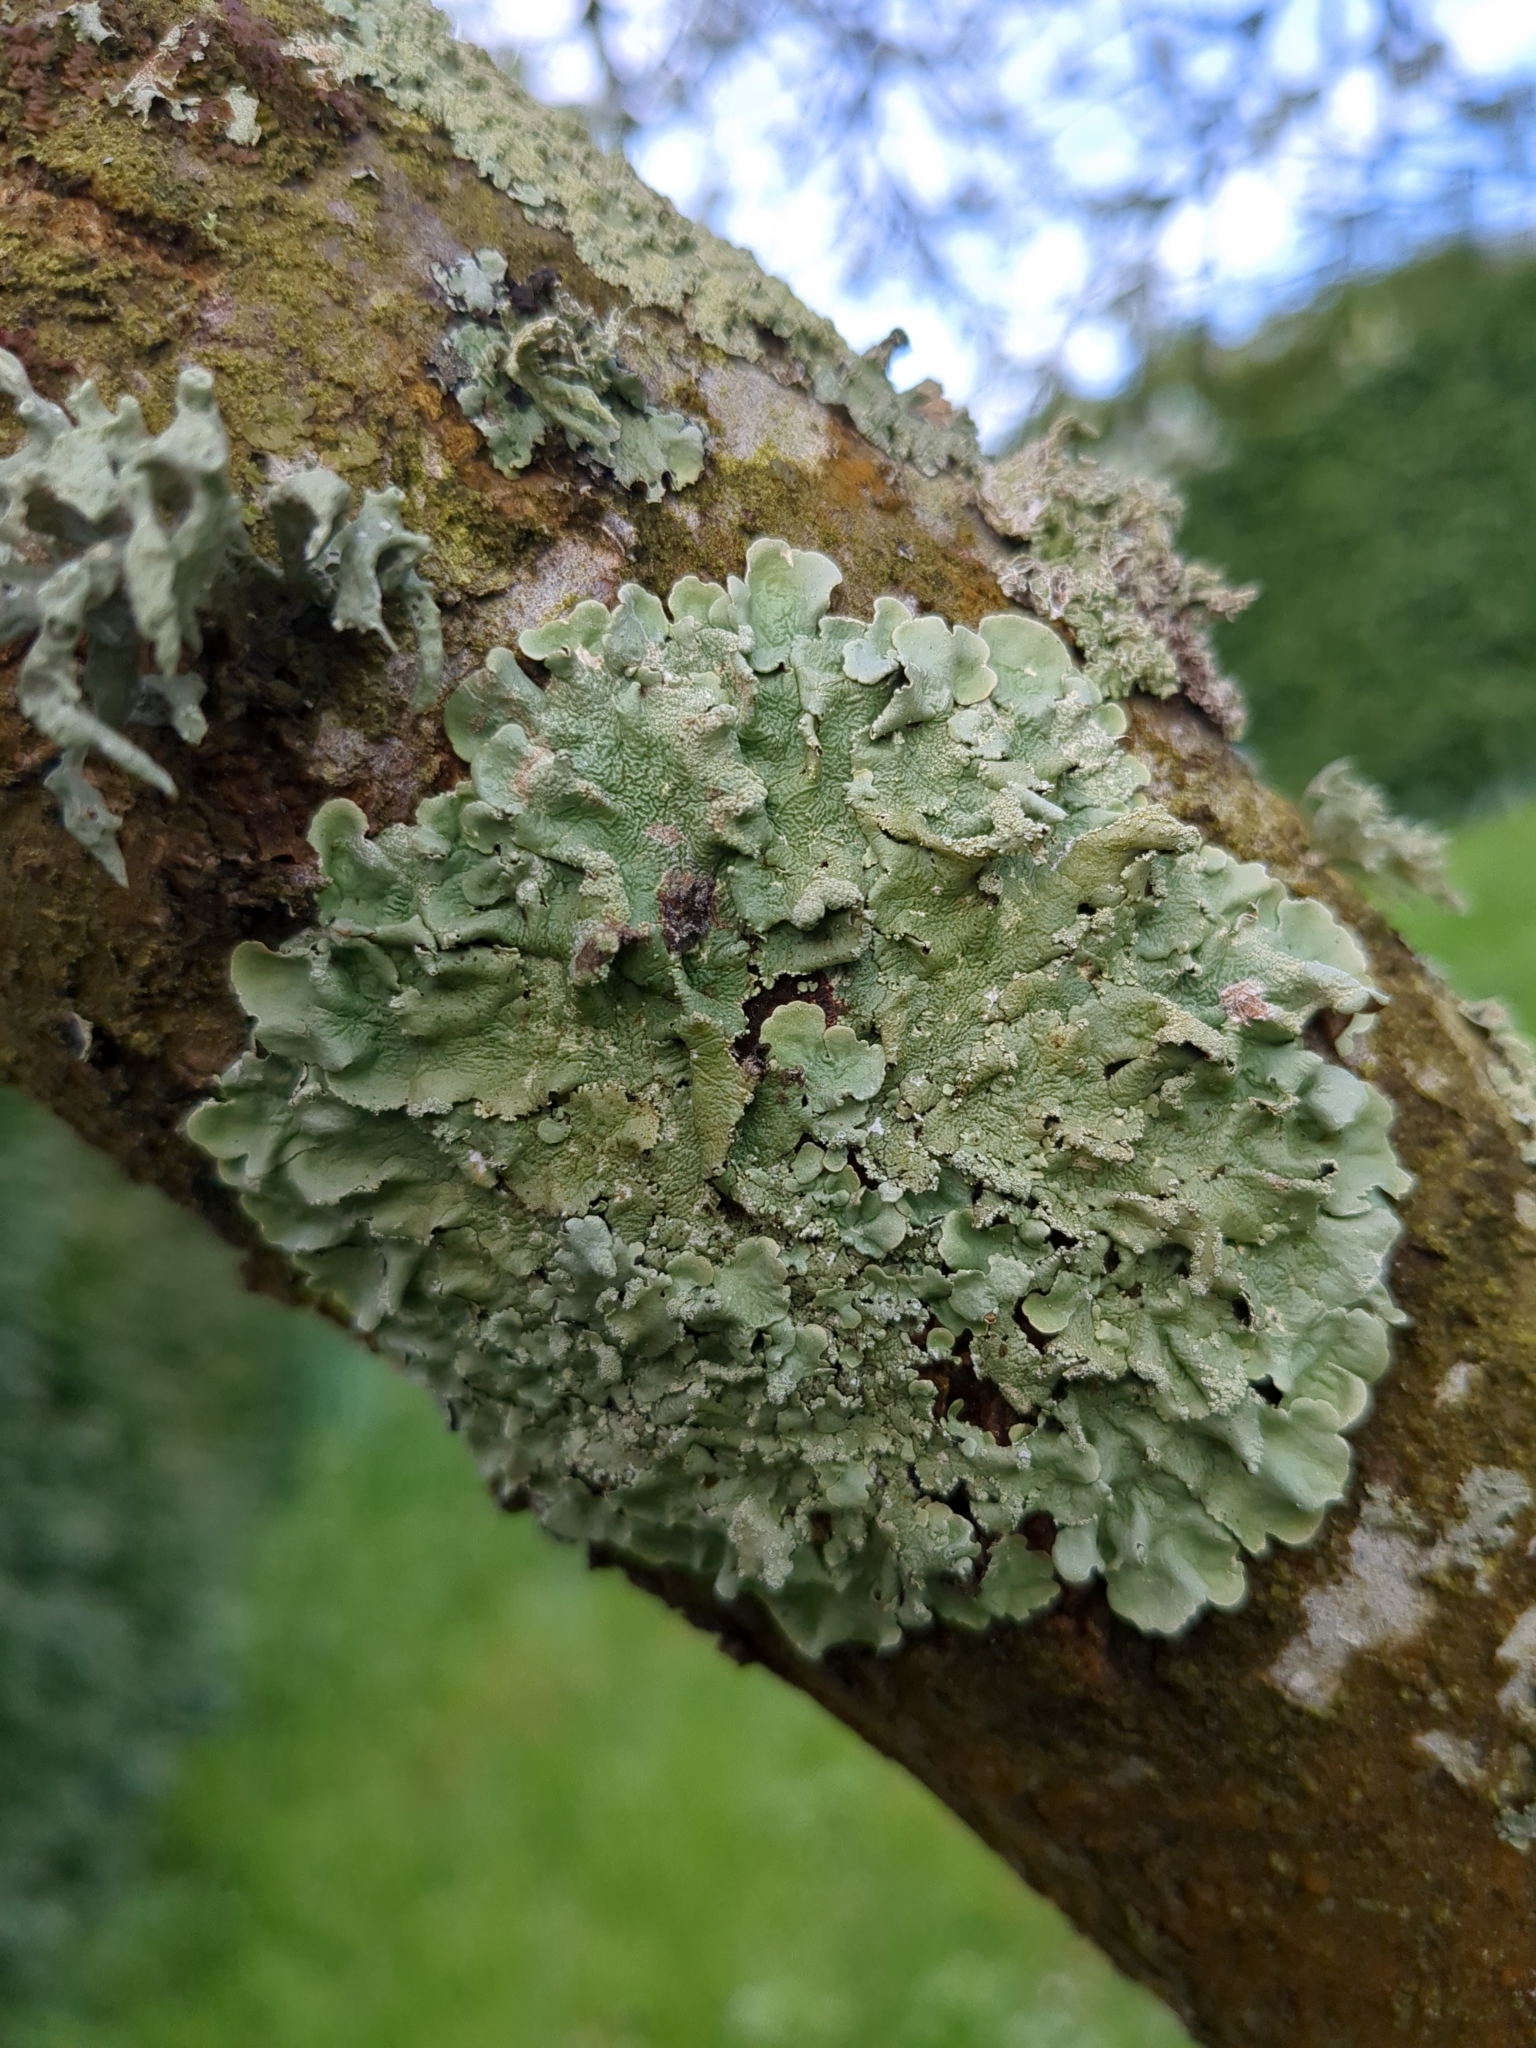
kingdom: Fungi
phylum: Ascomycota
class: Lecanoromycetes
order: Lecanorales
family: Parmeliaceae
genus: Flavoparmelia
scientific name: Flavoparmelia caperata
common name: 40-mile per hour lichen
